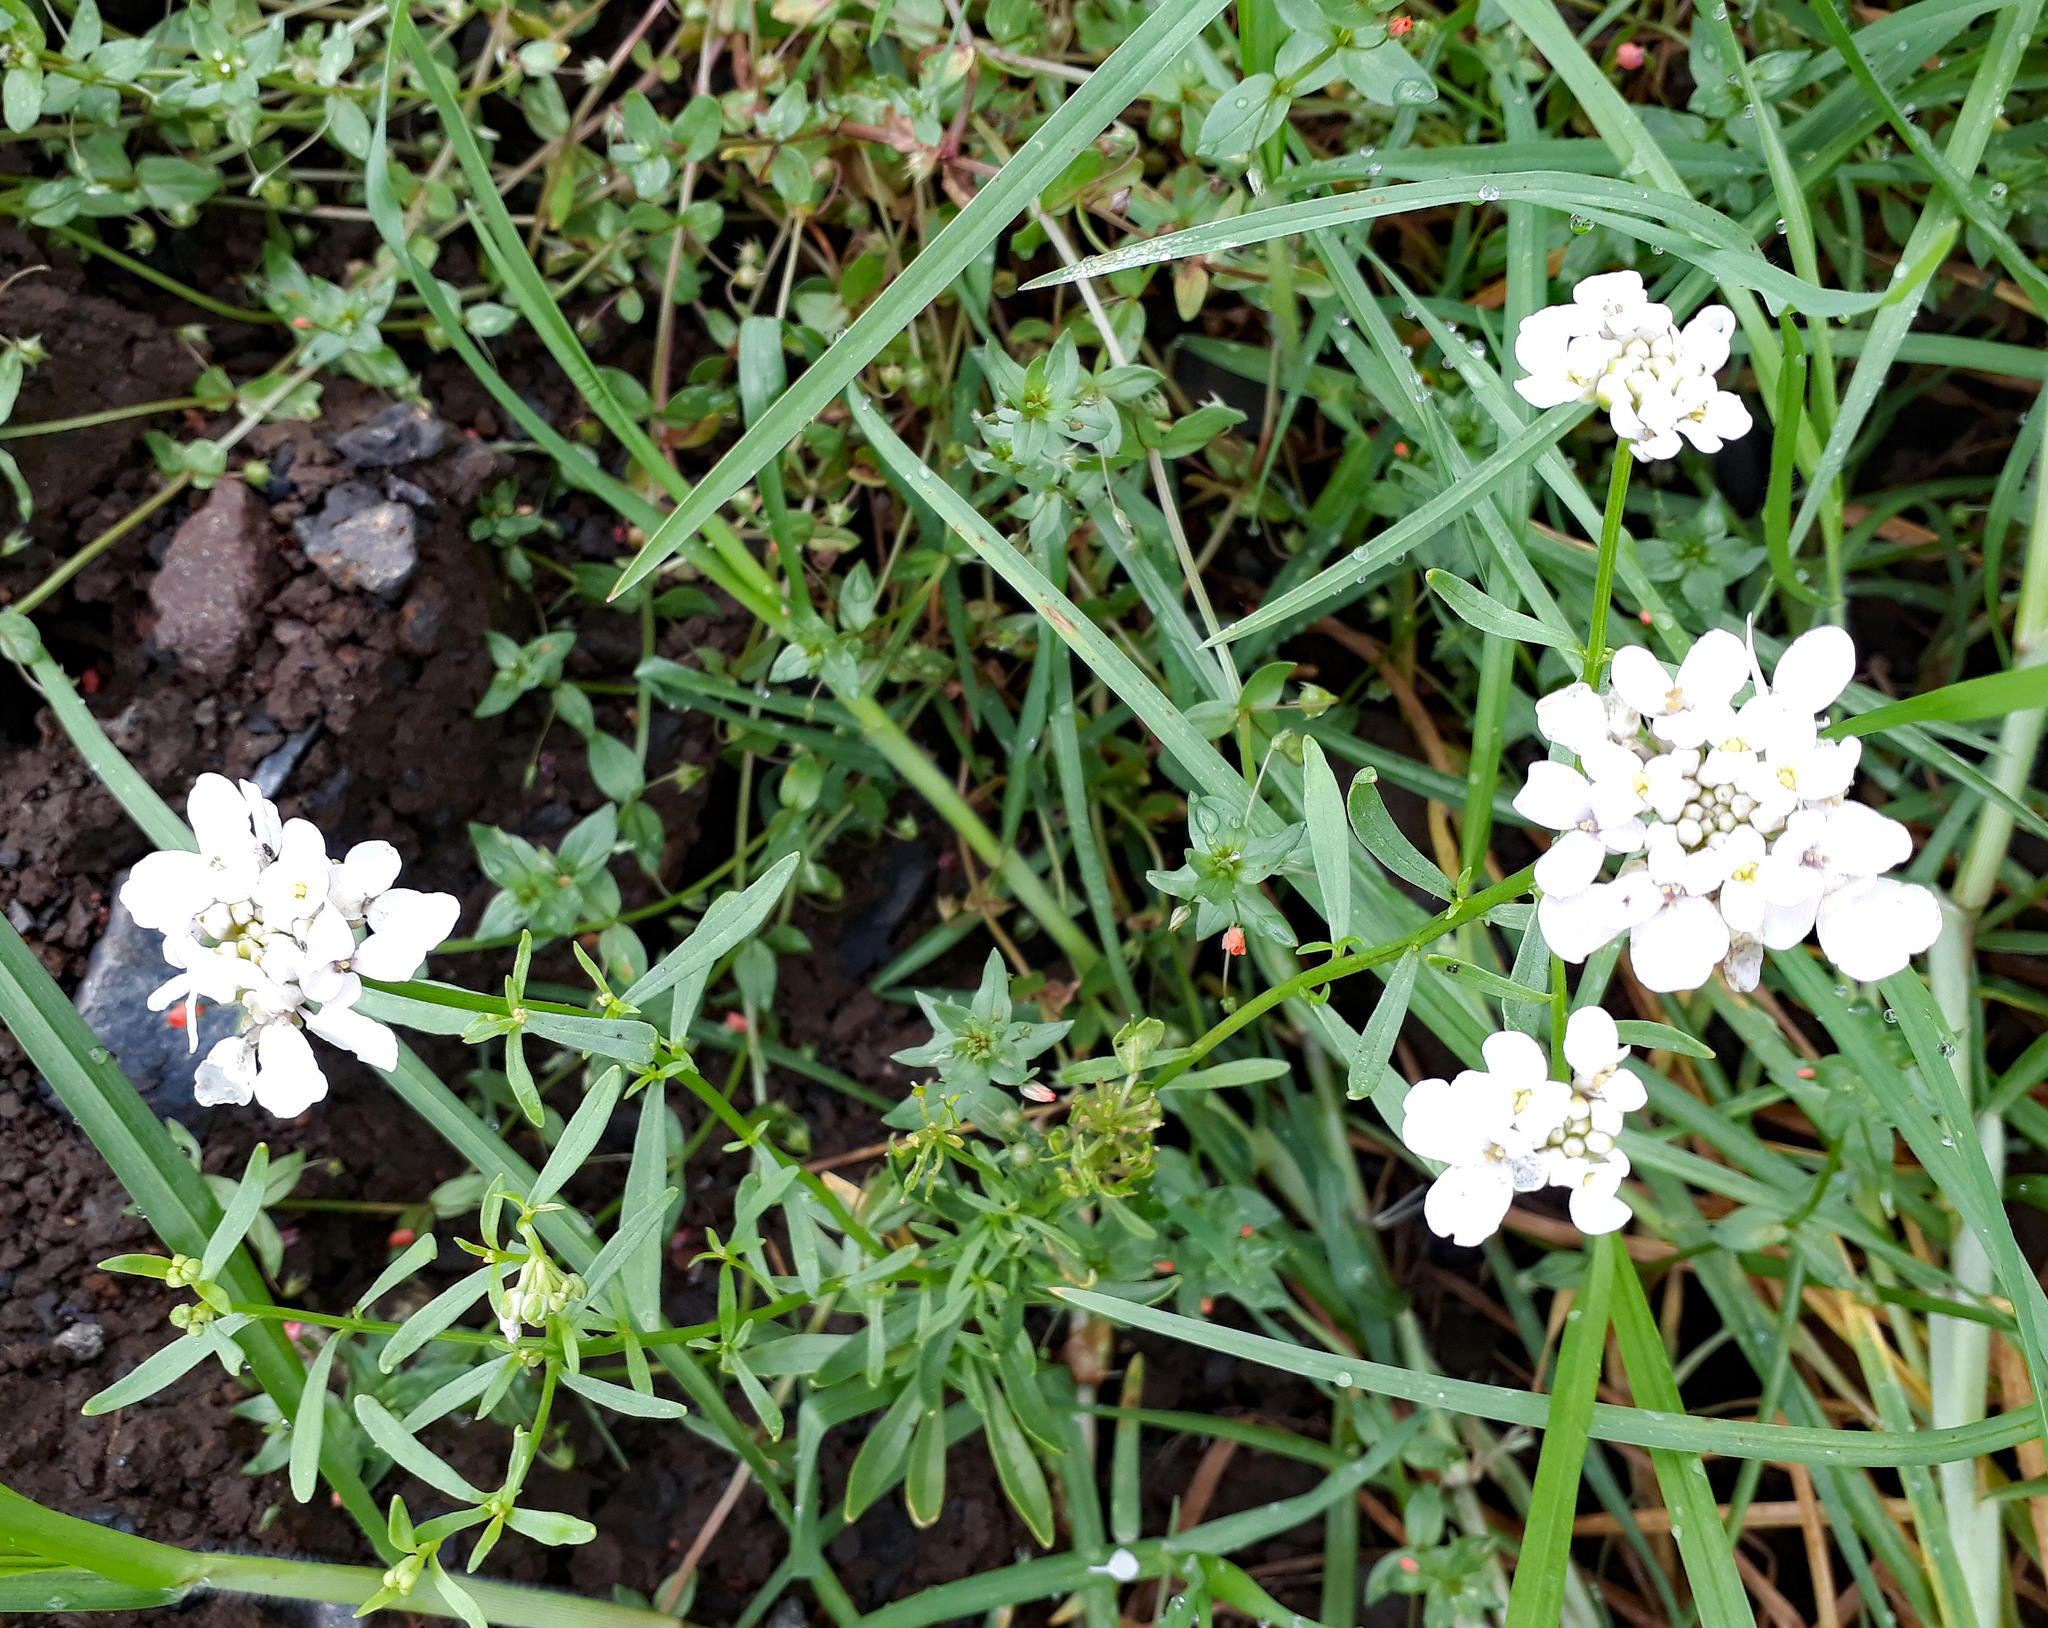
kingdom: Plantae
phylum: Tracheophyta
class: Magnoliopsida
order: Brassicales
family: Brassicaceae
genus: Iberis
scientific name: Iberis umbellata
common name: Globe candytuft
